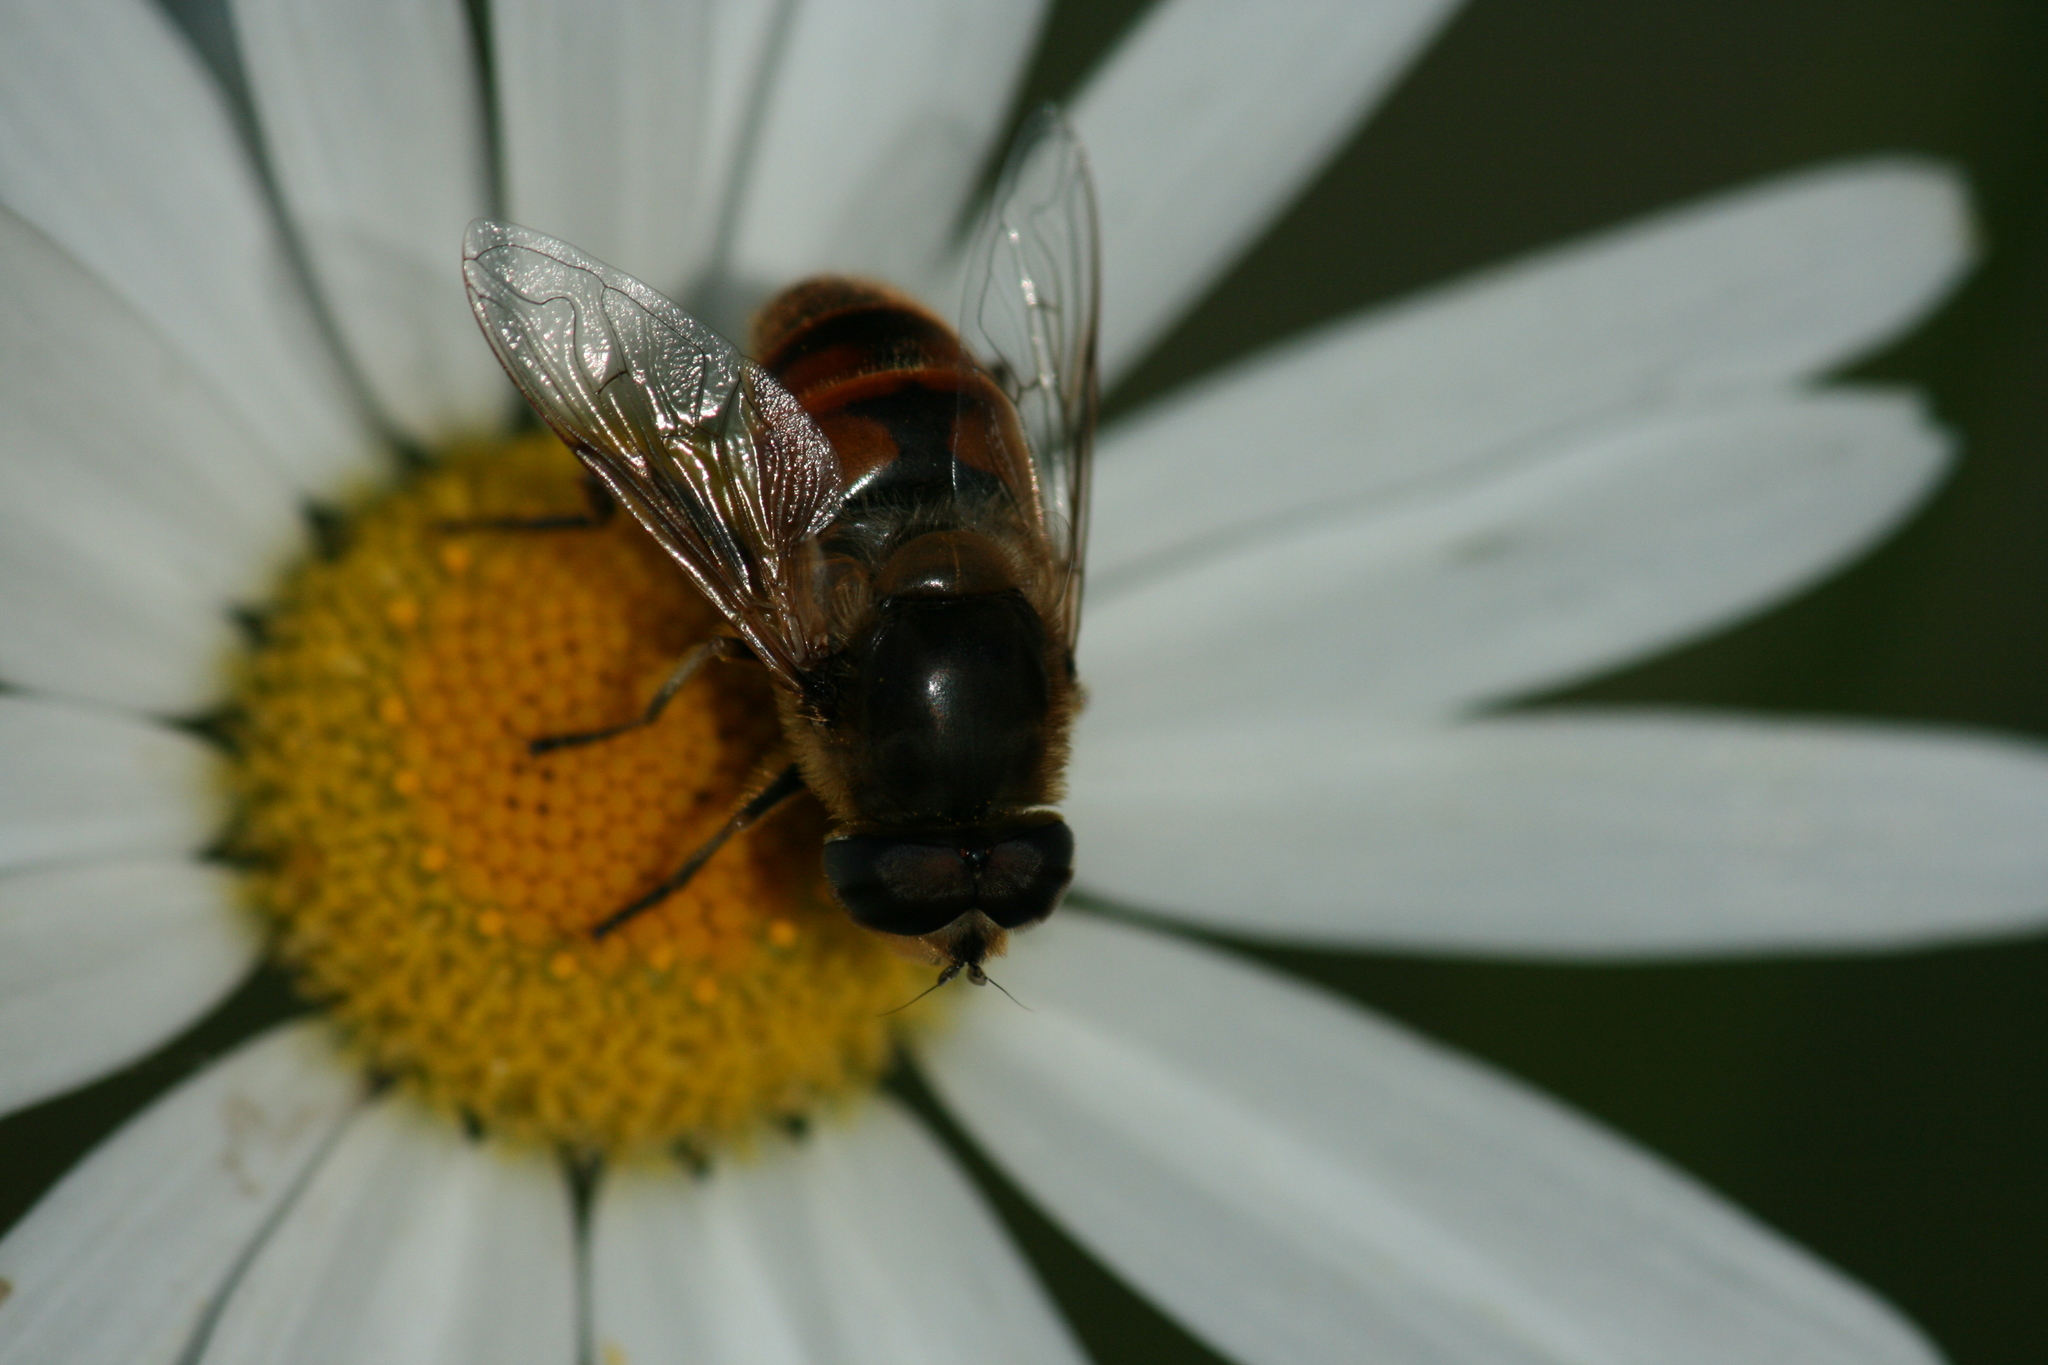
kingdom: Animalia
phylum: Arthropoda
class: Insecta
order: Diptera
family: Syrphidae
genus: Eristalis
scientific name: Eristalis tenax
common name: Drone fly
